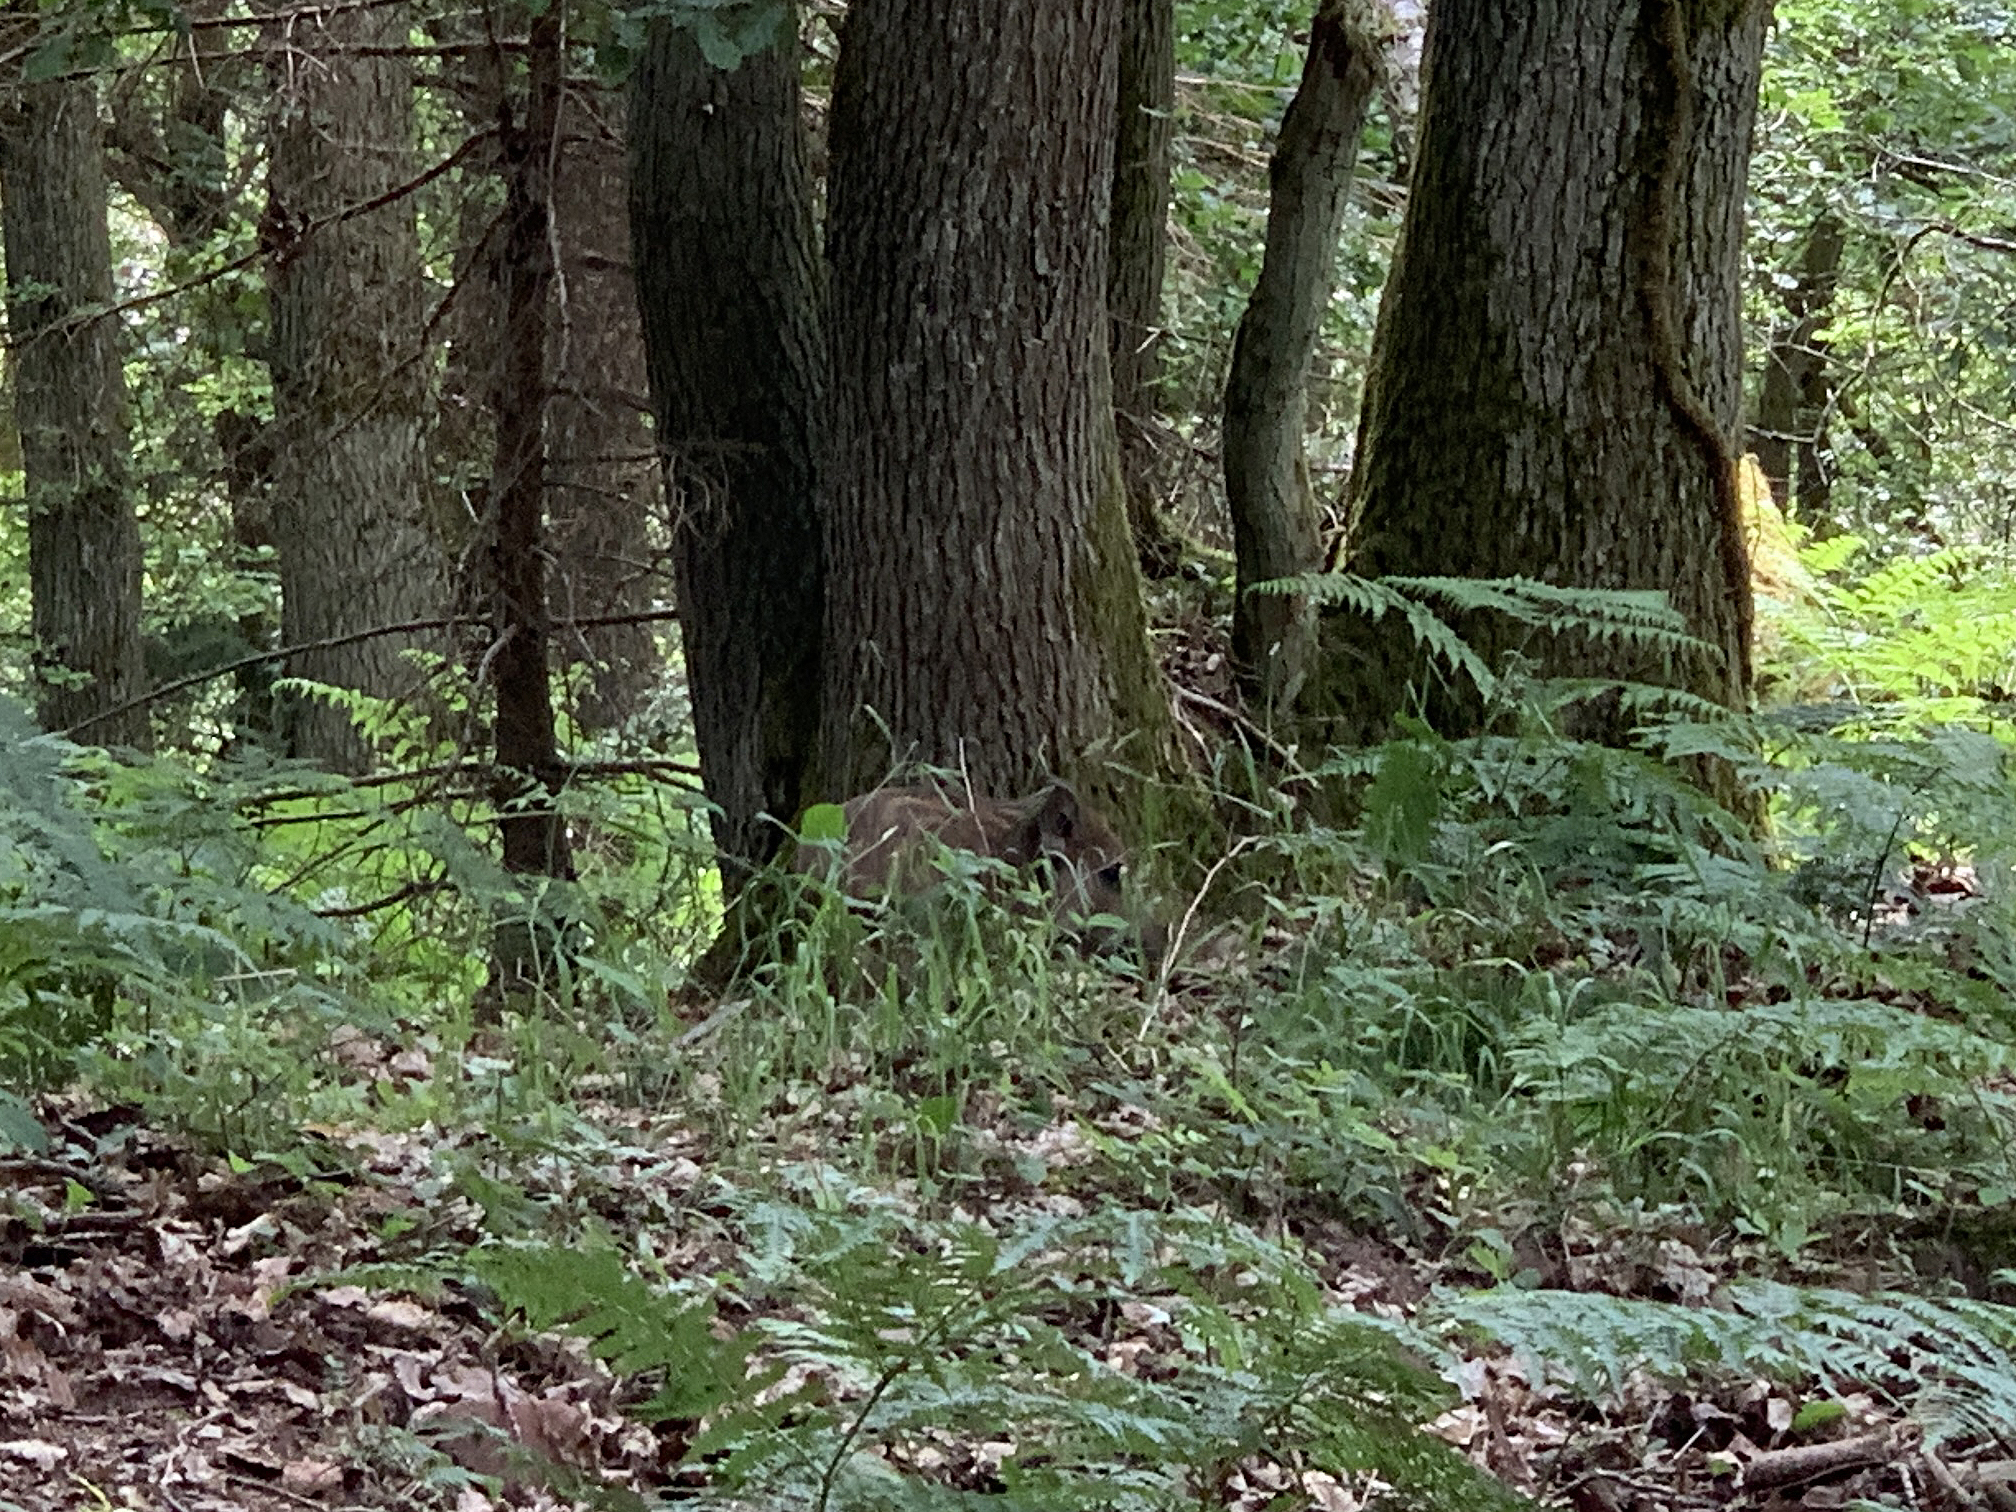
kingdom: Animalia
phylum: Chordata
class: Mammalia
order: Artiodactyla
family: Suidae
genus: Sus
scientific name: Sus scrofa
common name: Wild boar
